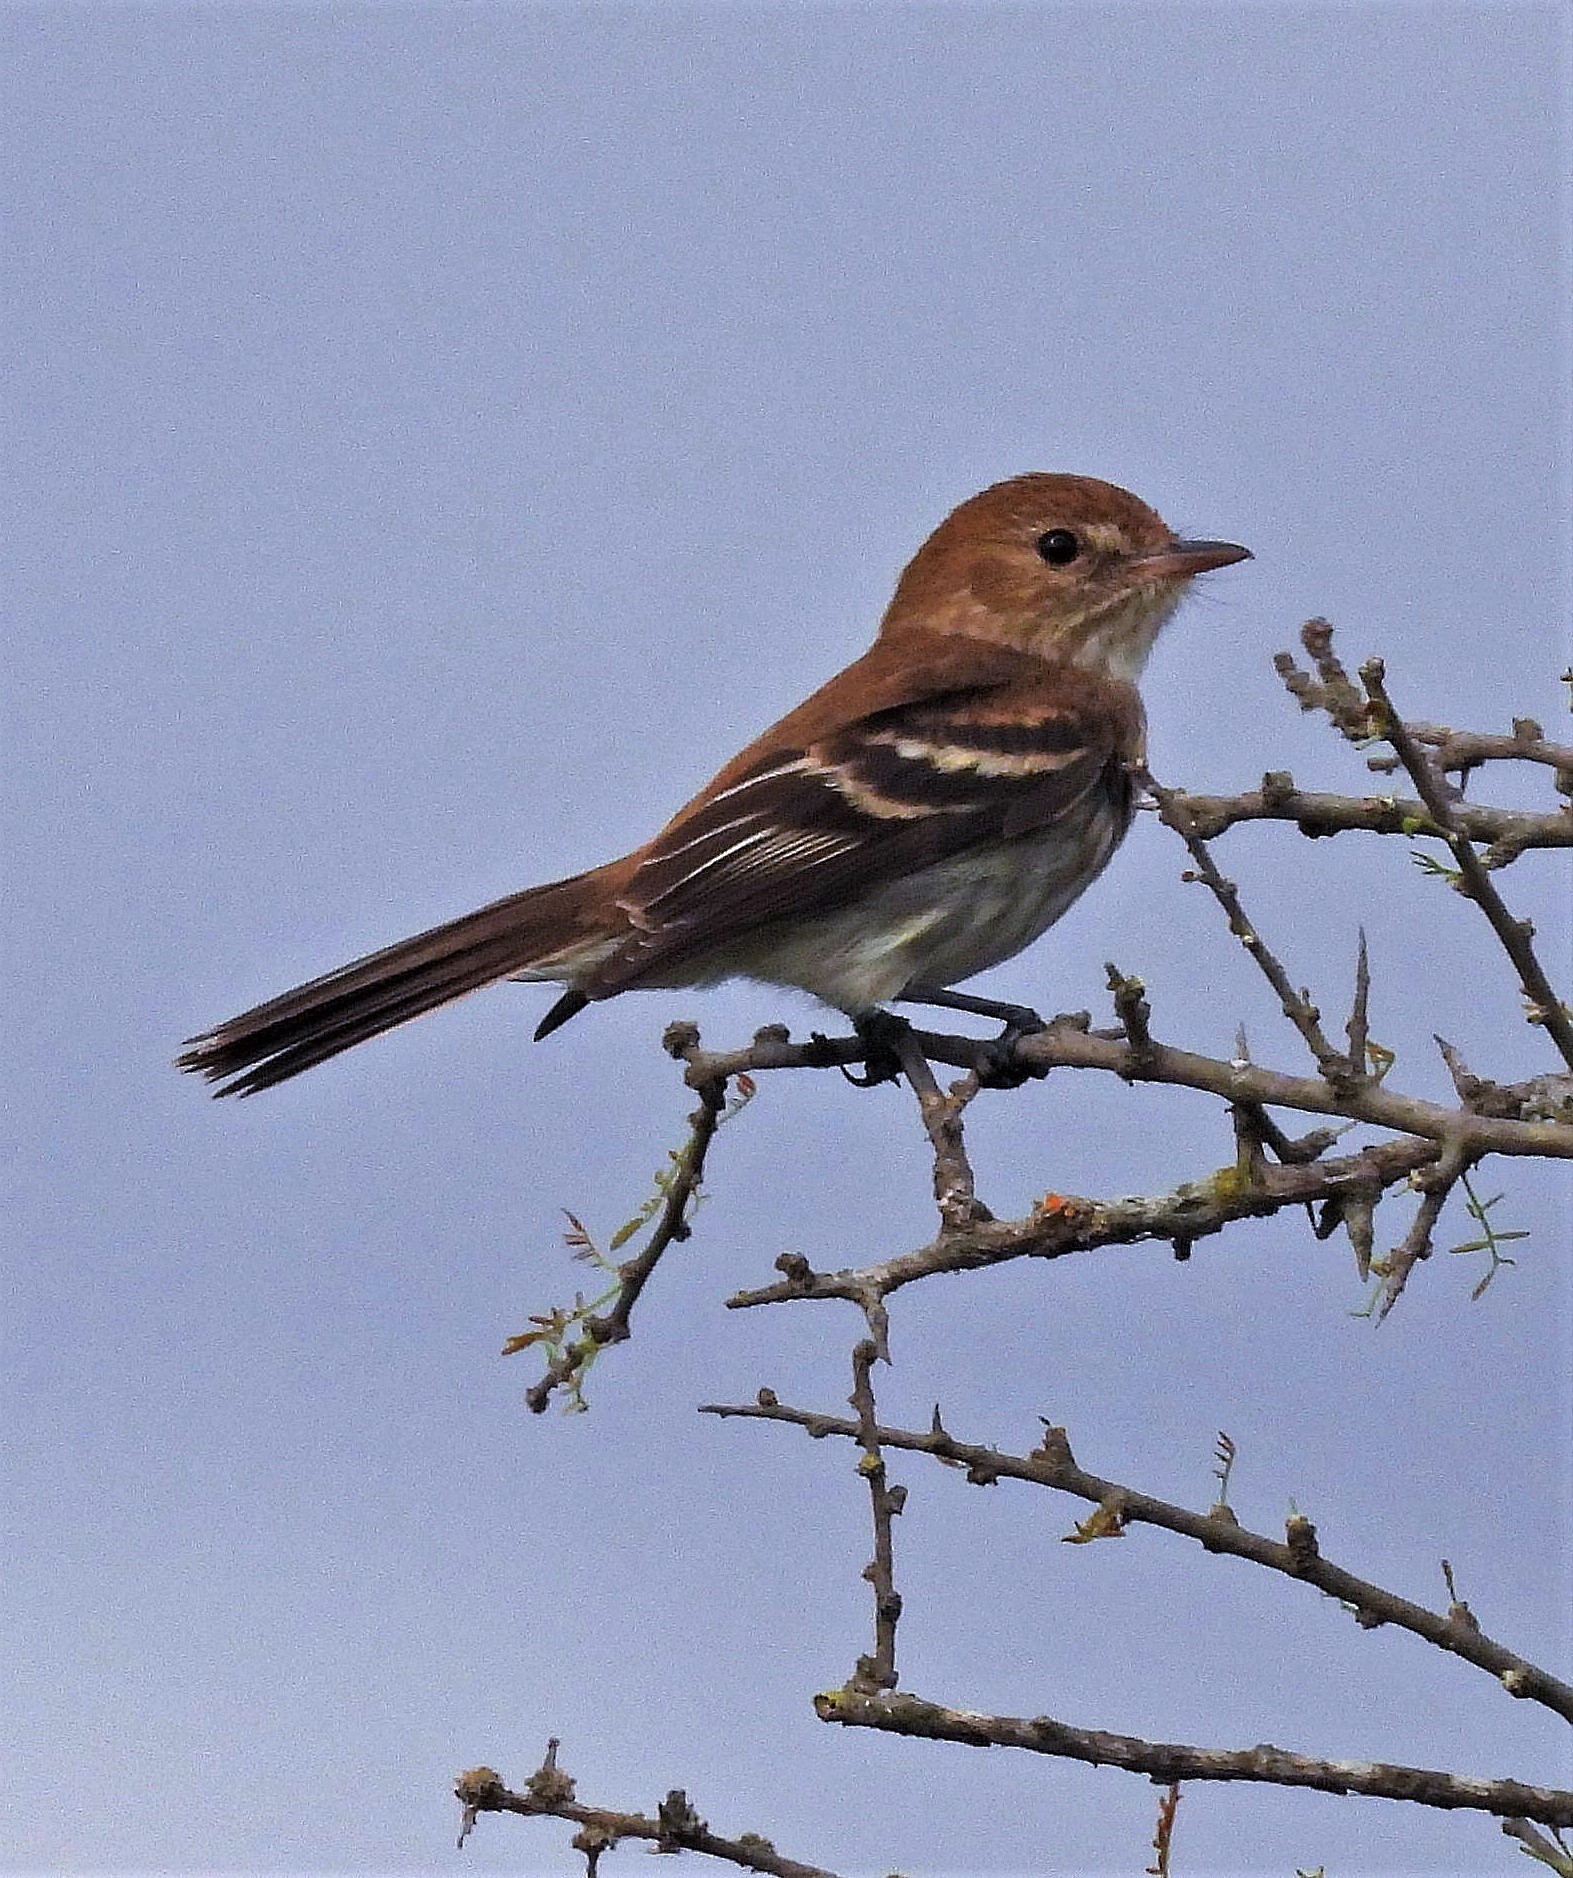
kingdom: Animalia
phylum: Chordata
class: Aves
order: Passeriformes
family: Tyrannidae
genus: Myiophobus
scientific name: Myiophobus fasciatus
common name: Bran-colored flycatcher
